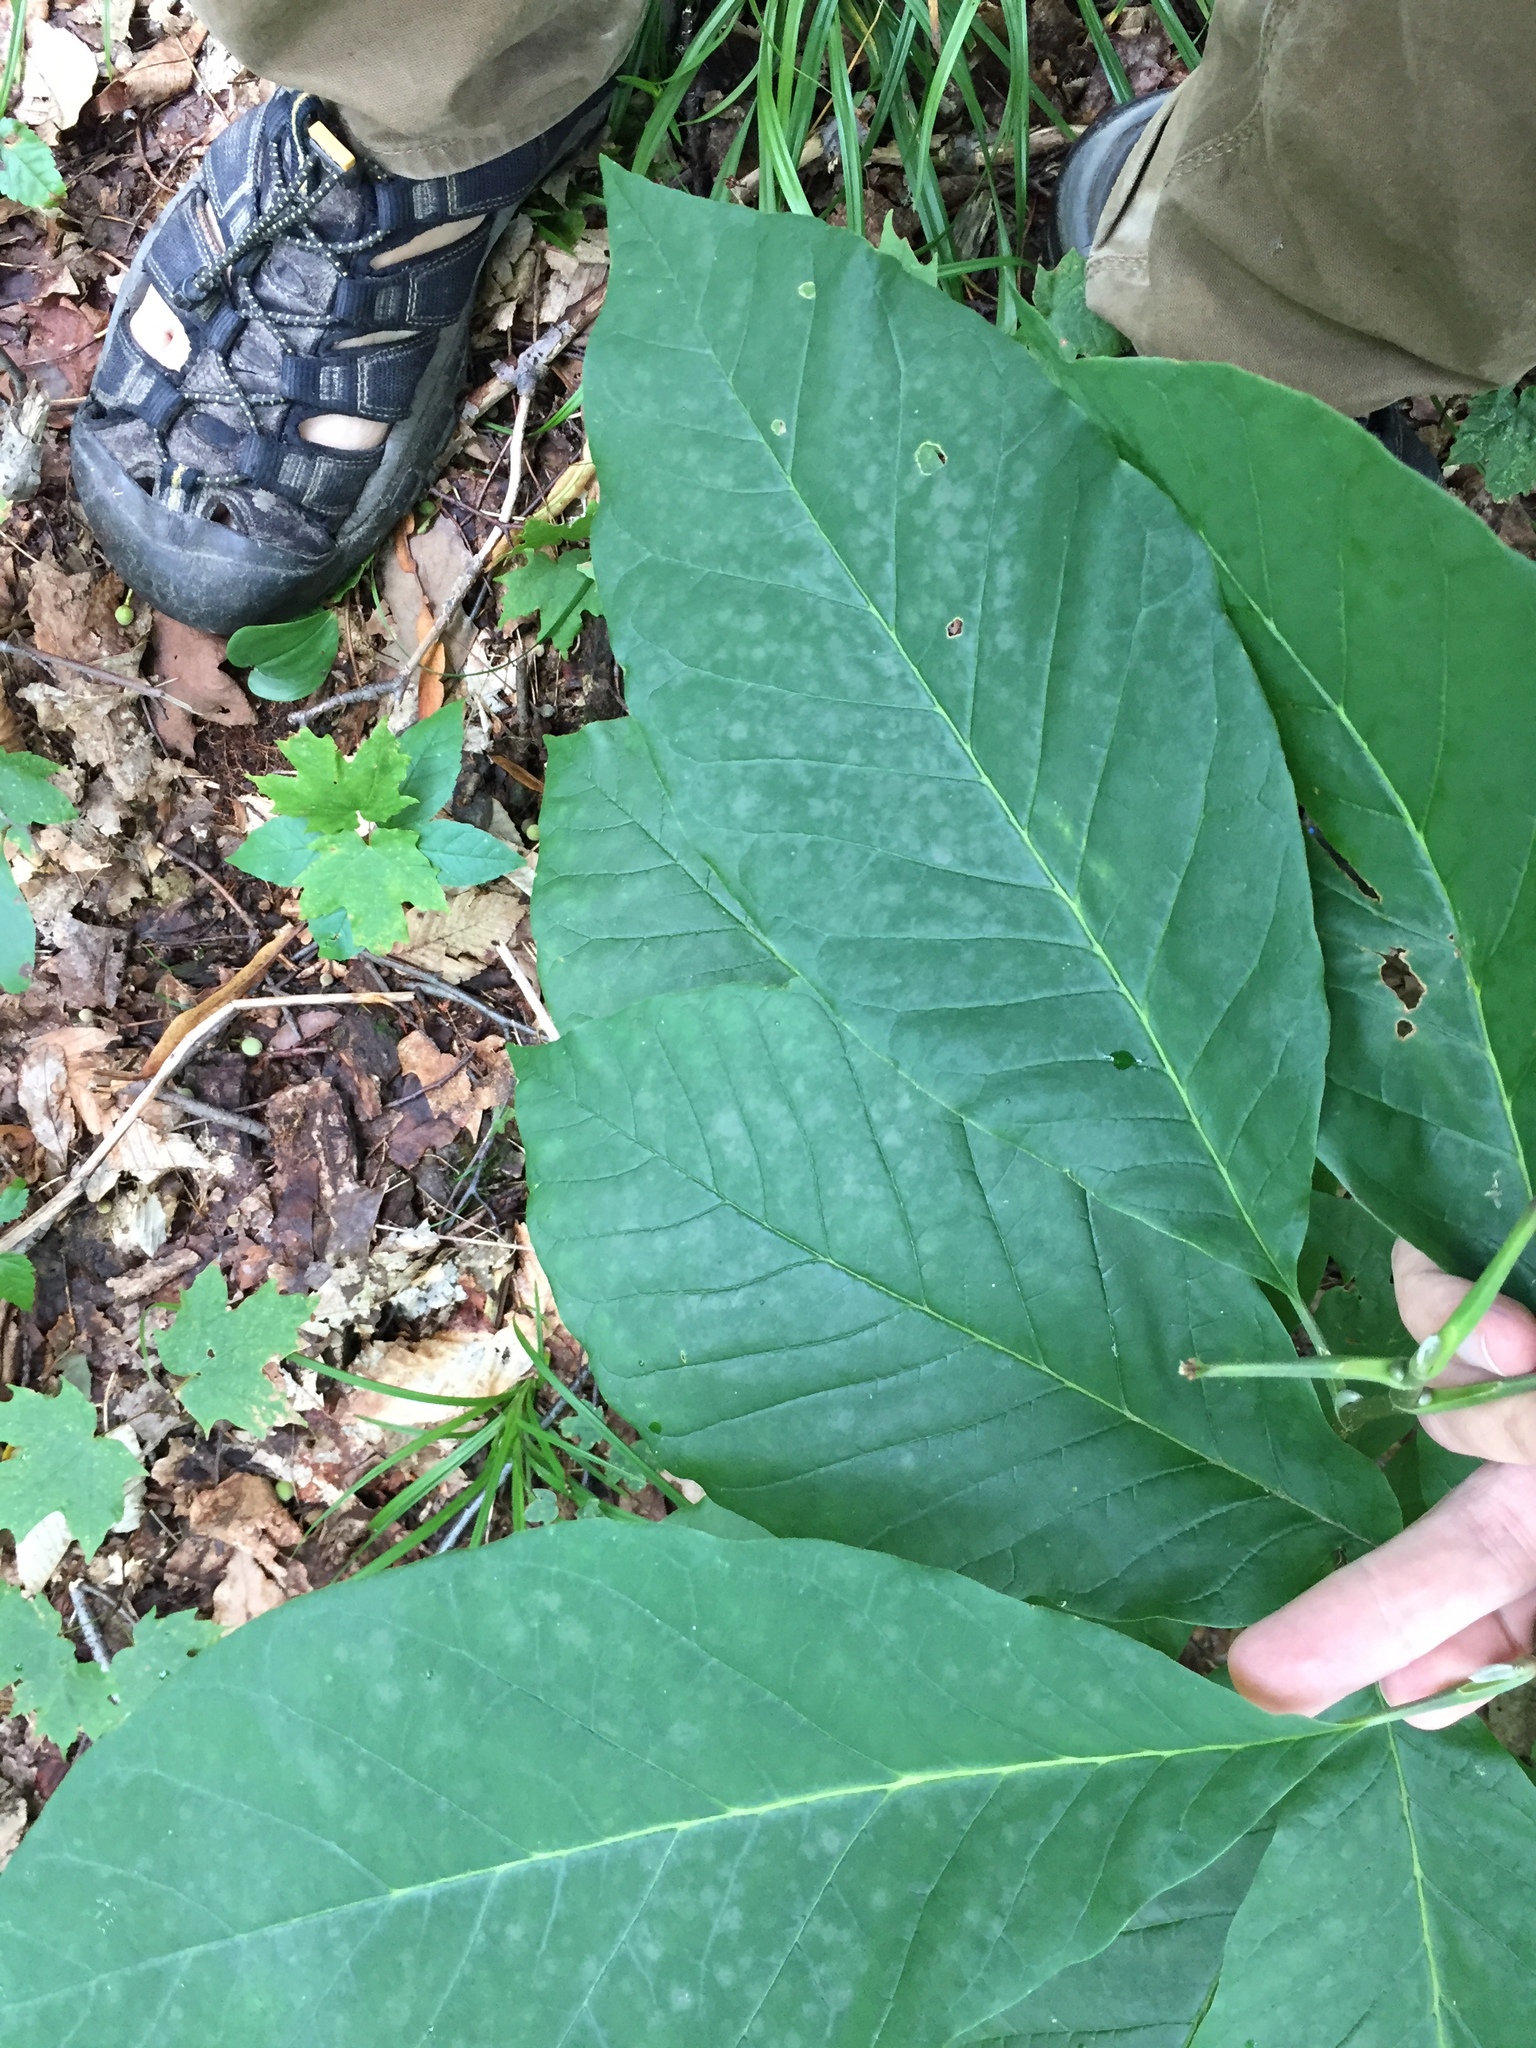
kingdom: Plantae
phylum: Tracheophyta
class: Magnoliopsida
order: Magnoliales
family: Magnoliaceae
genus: Magnolia
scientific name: Magnolia acuminata
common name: Cucumber magnolia
